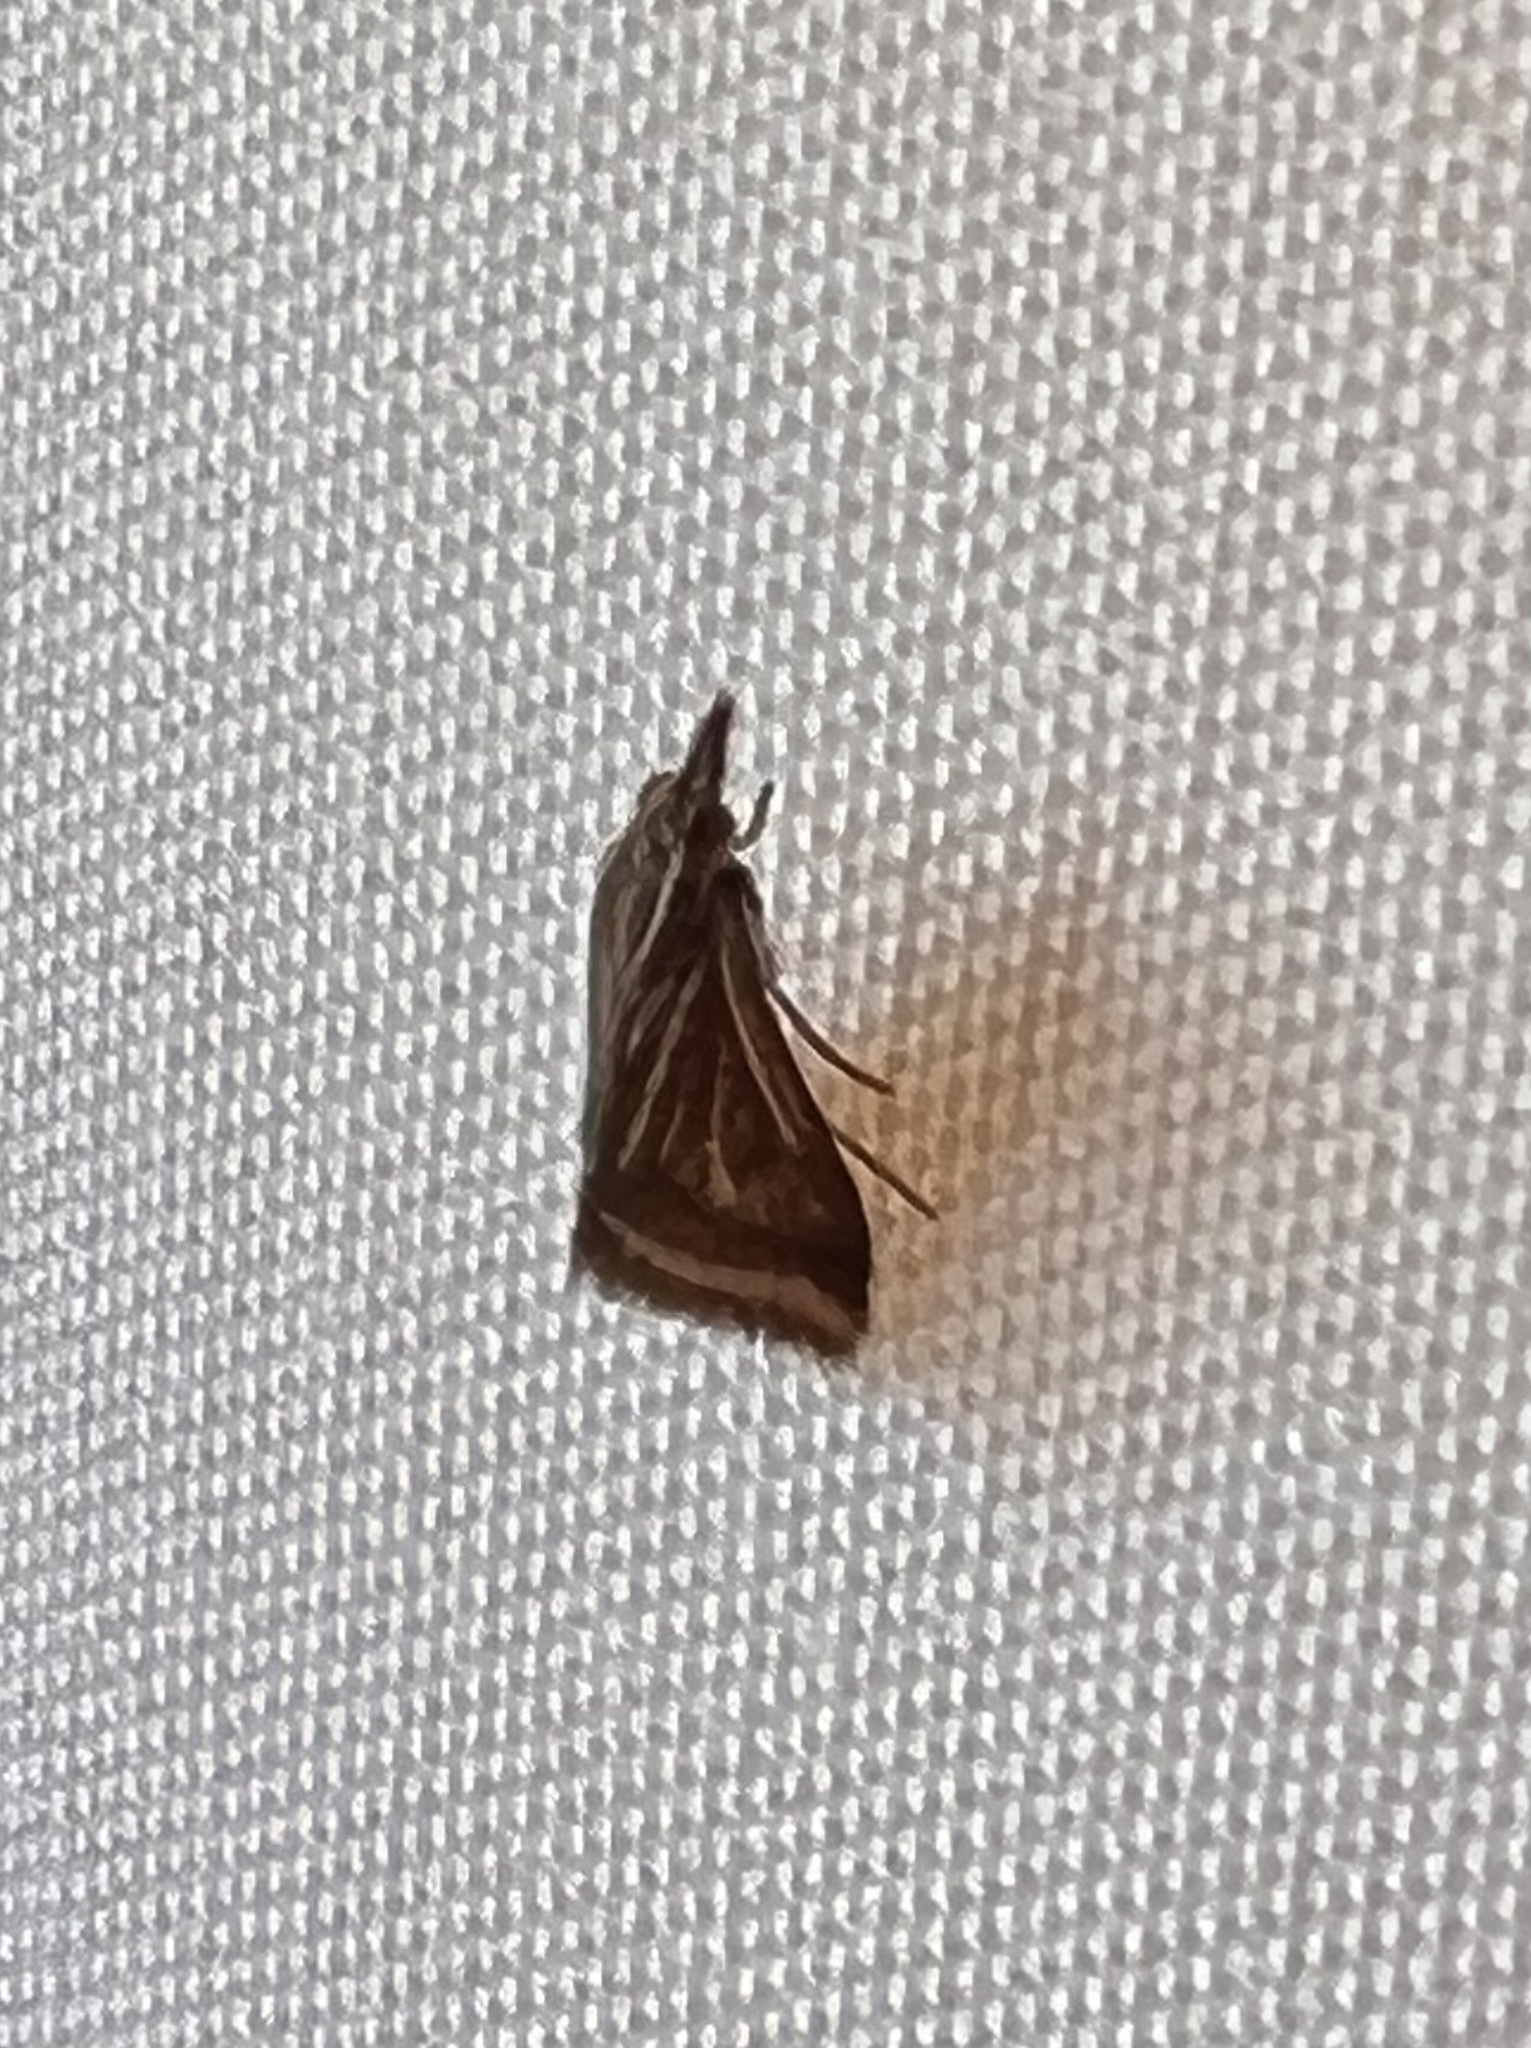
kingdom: Animalia
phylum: Arthropoda
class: Insecta
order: Lepidoptera
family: Crambidae
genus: Microtheoris
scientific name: Microtheoris ophionalis
